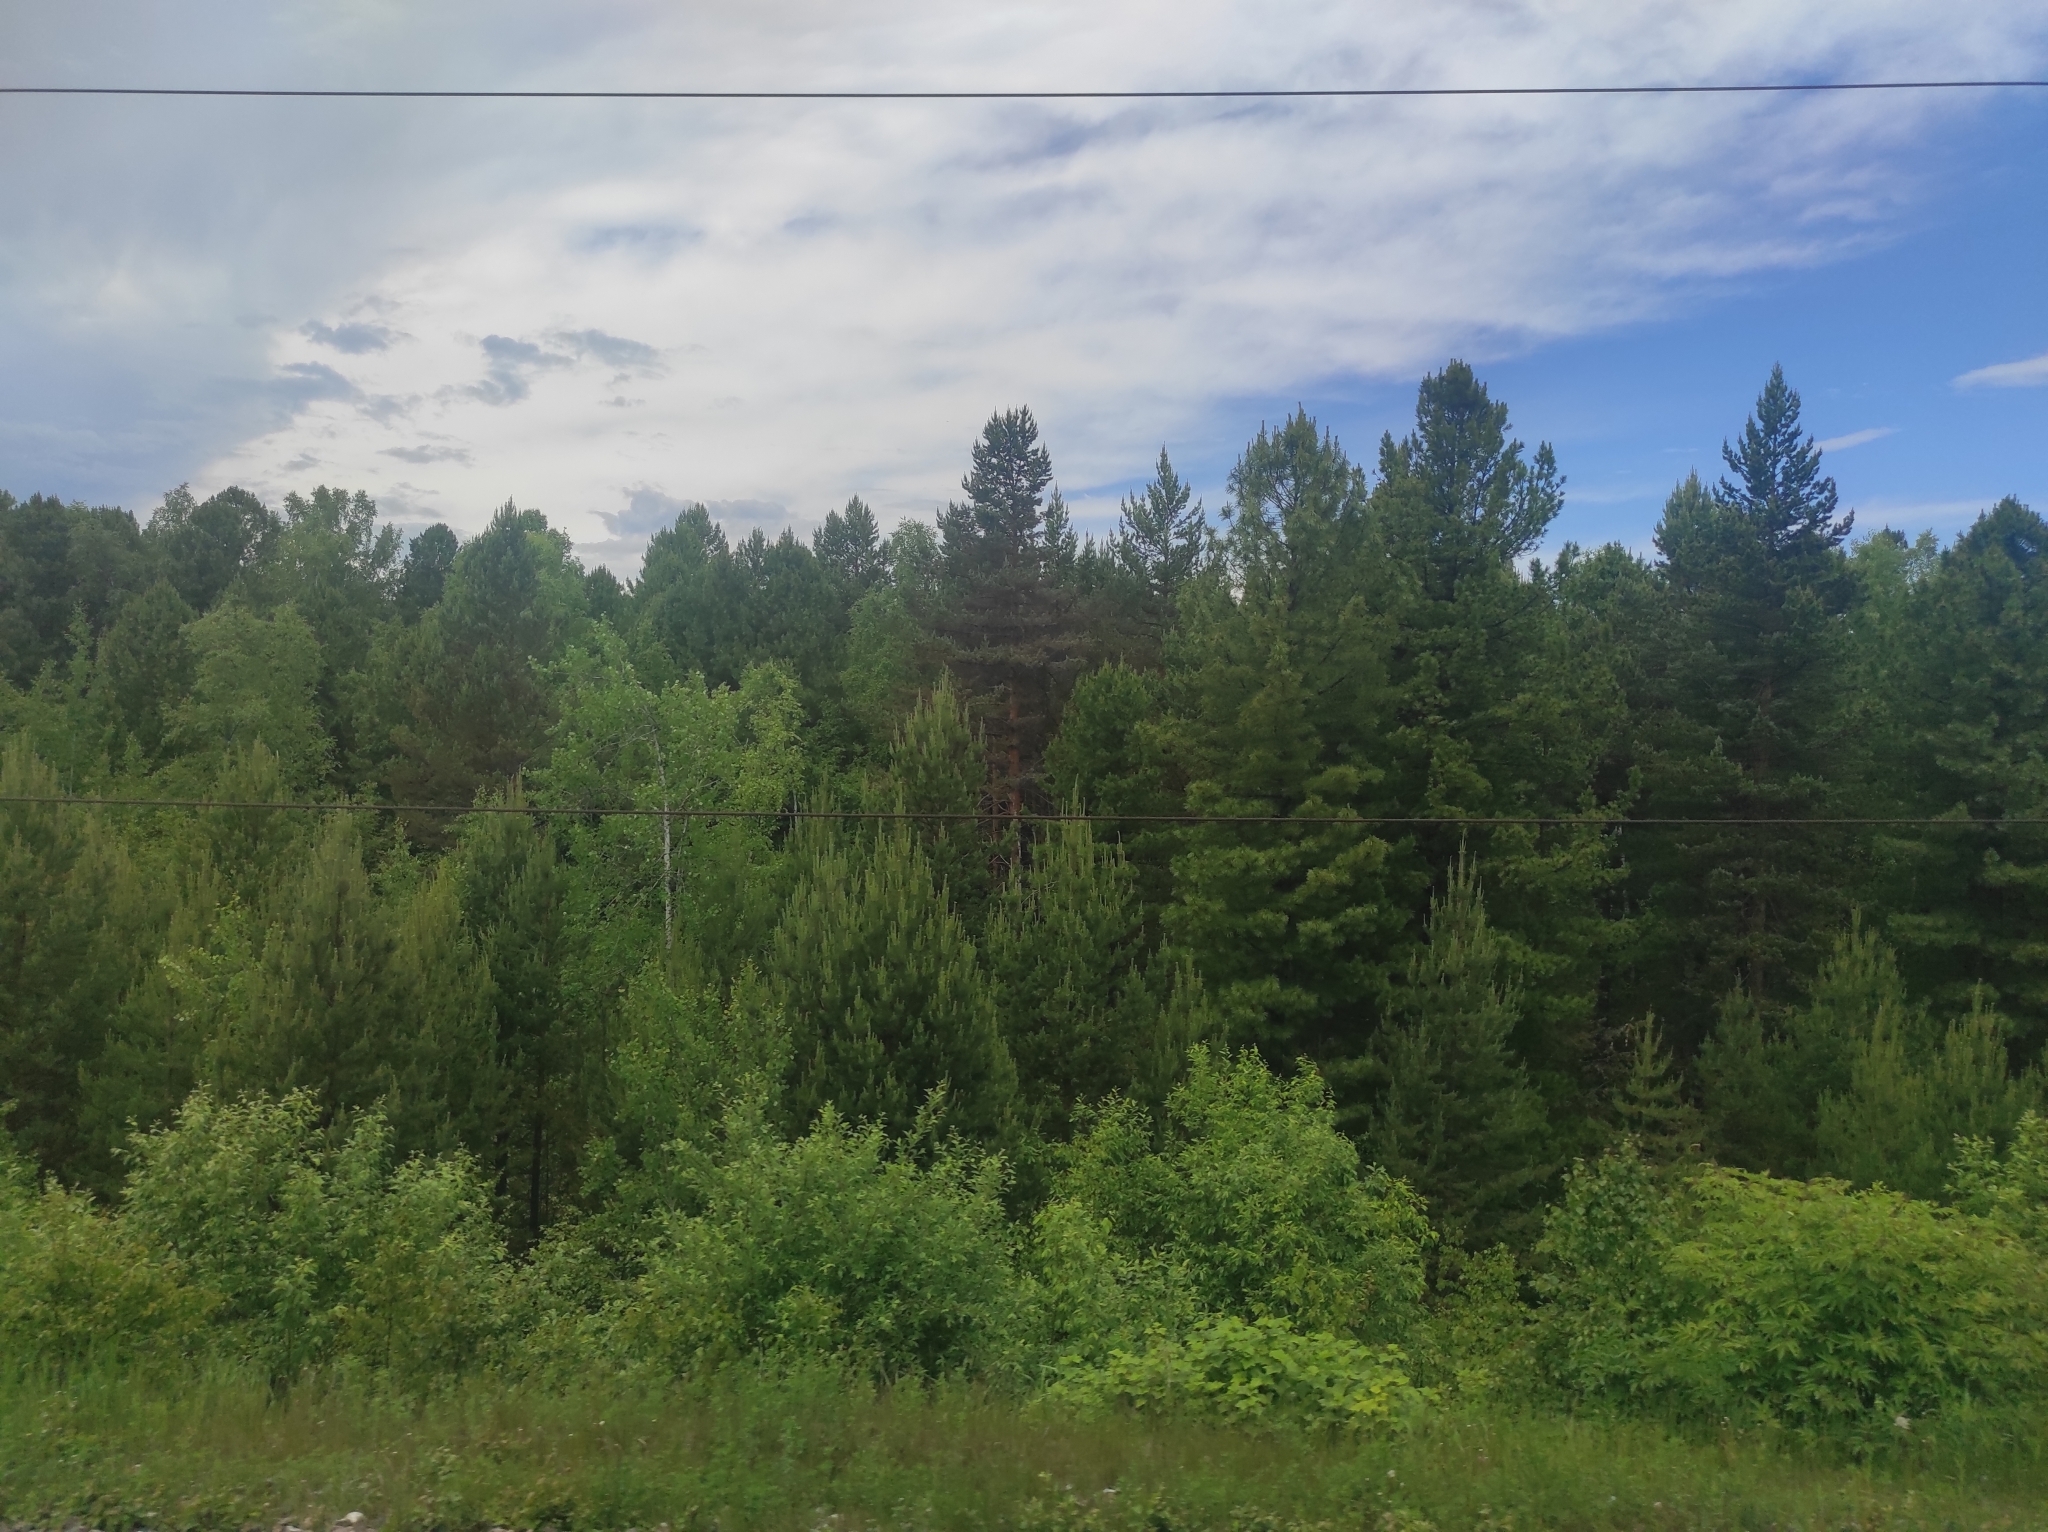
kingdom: Plantae
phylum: Tracheophyta
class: Pinopsida
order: Pinales
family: Pinaceae
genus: Pinus
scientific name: Pinus sylvestris
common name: Scots pine
